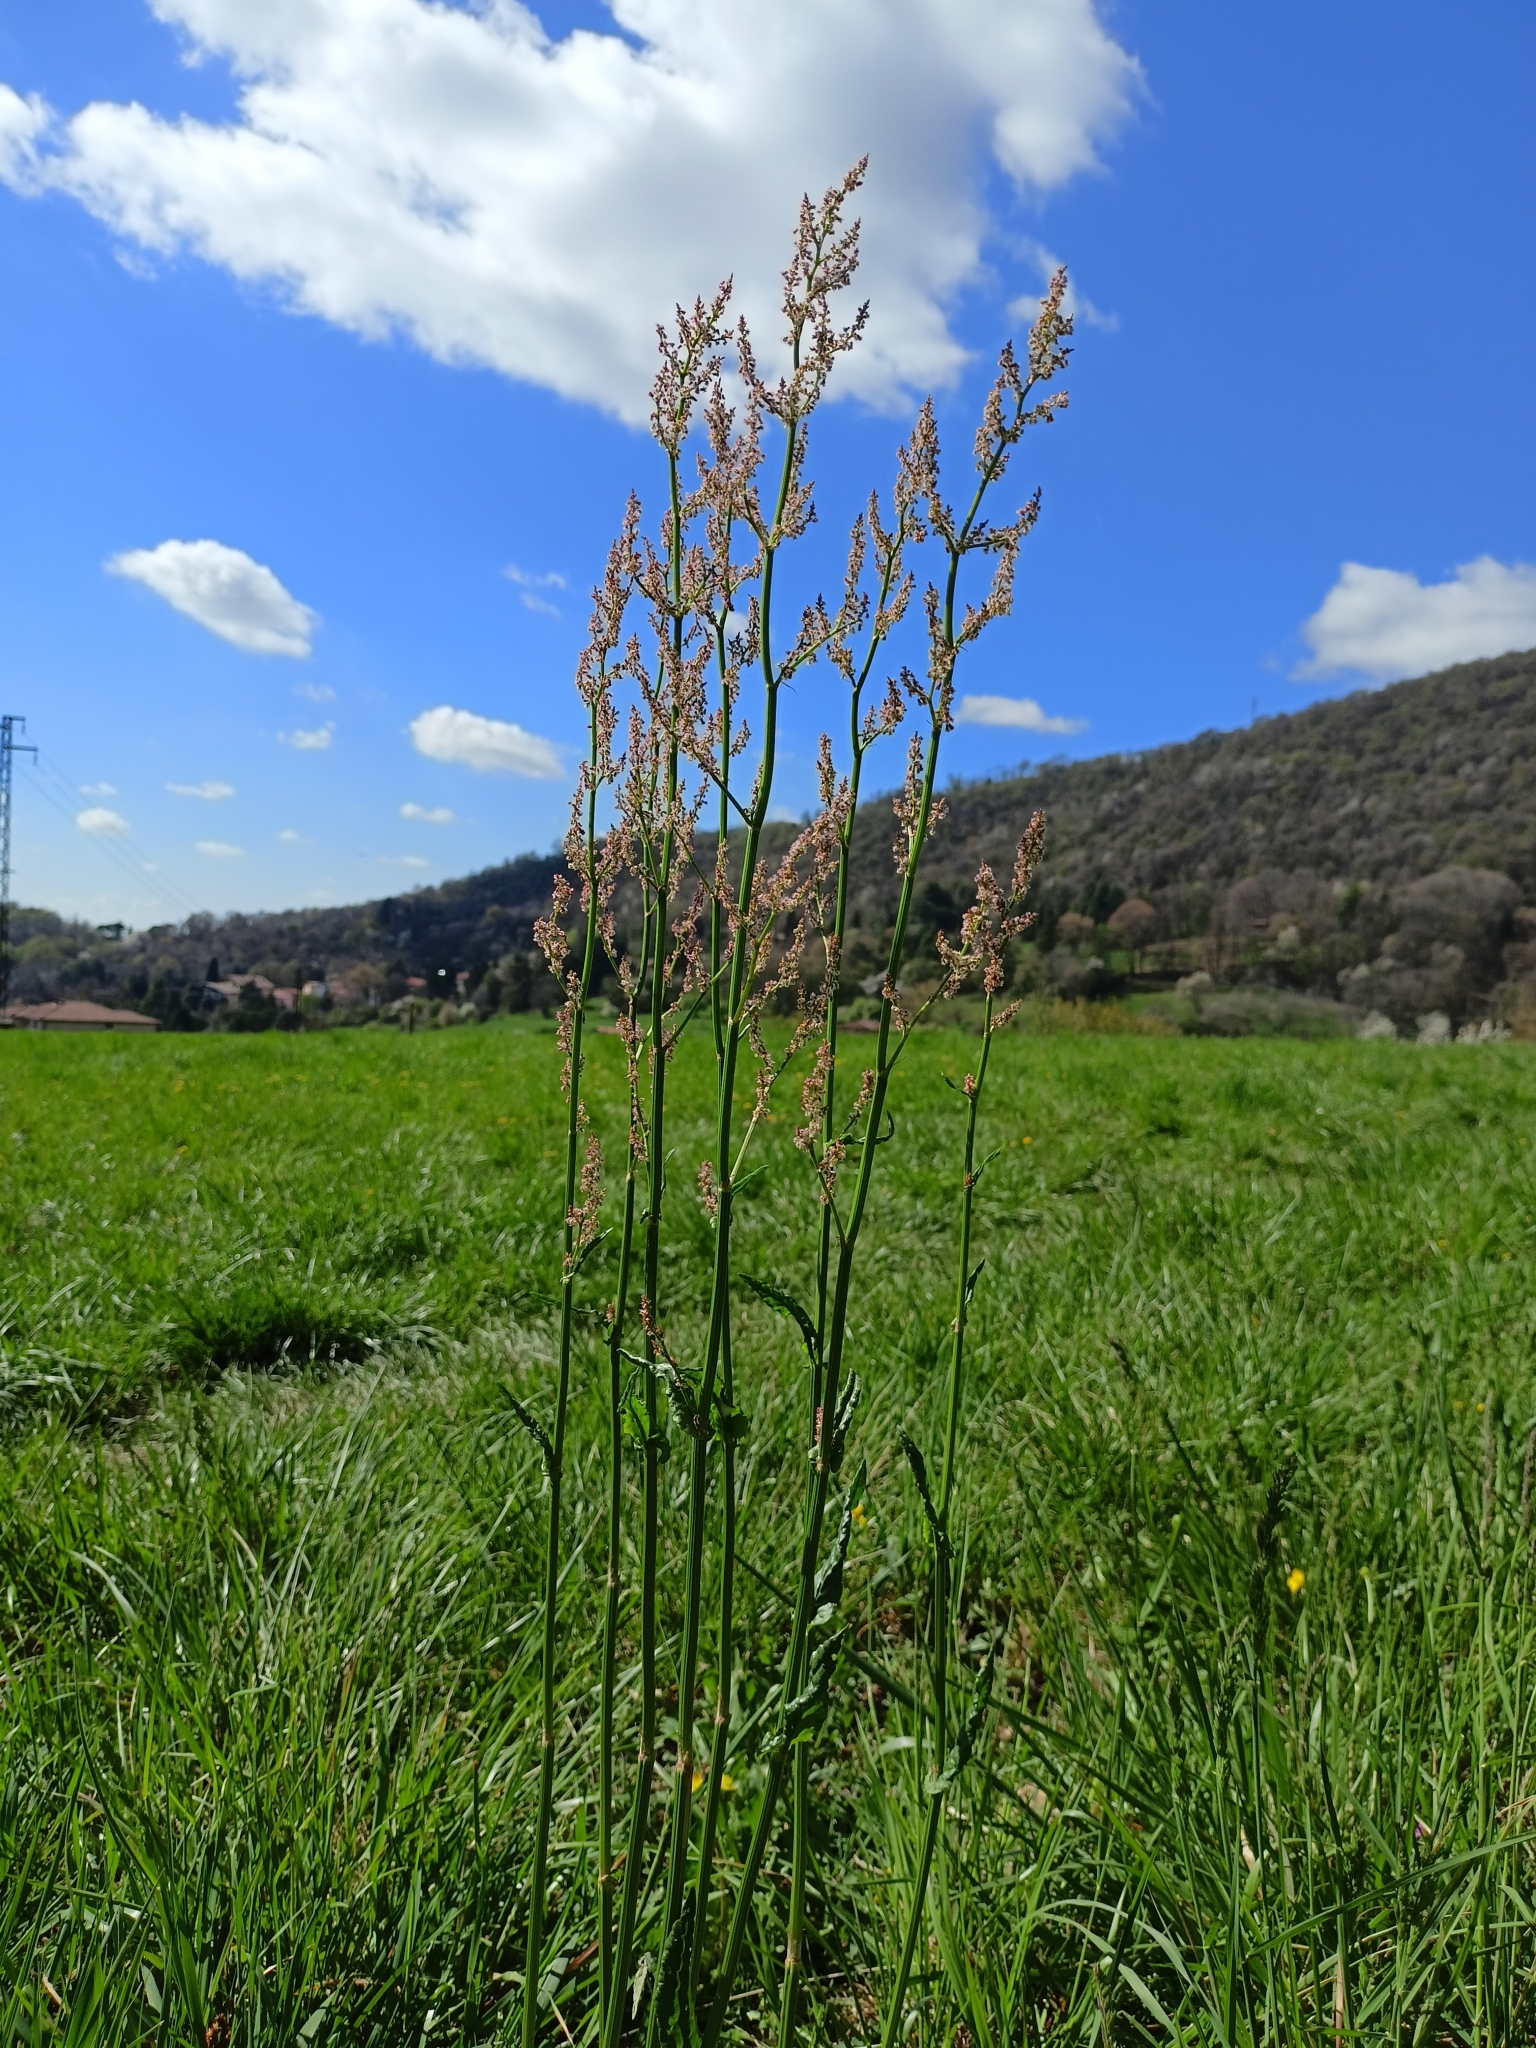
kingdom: Plantae
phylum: Tracheophyta
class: Magnoliopsida
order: Caryophyllales
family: Polygonaceae
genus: Rumex
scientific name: Rumex acetosa
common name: Garden sorrel
